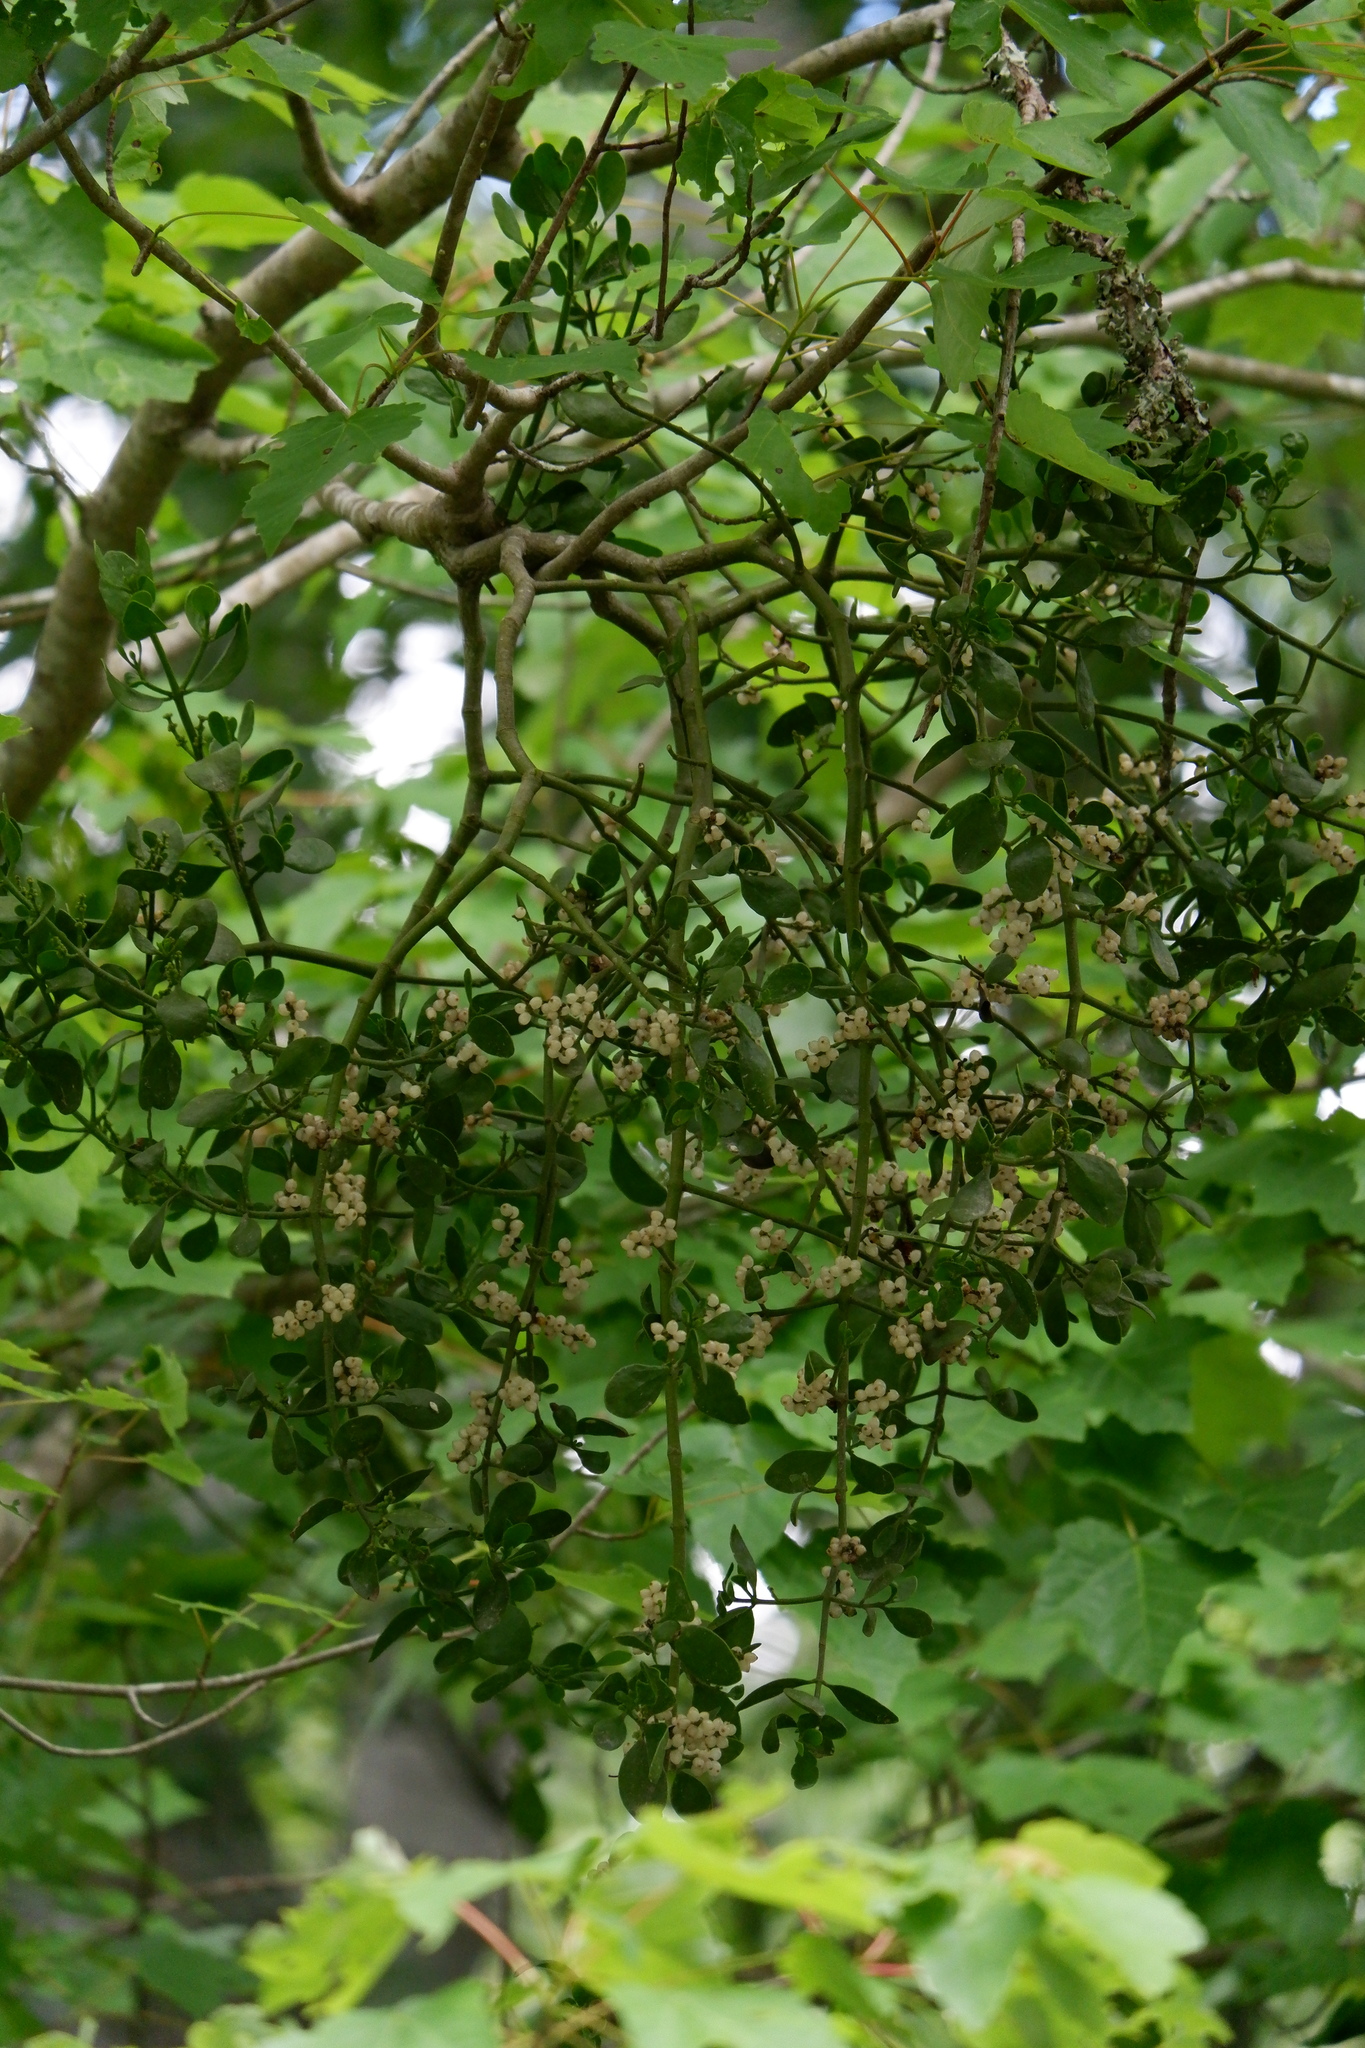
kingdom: Plantae
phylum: Tracheophyta
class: Magnoliopsida
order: Santalales
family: Viscaceae
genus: Phoradendron
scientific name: Phoradendron leucarpum
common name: Pacific mistletoe
